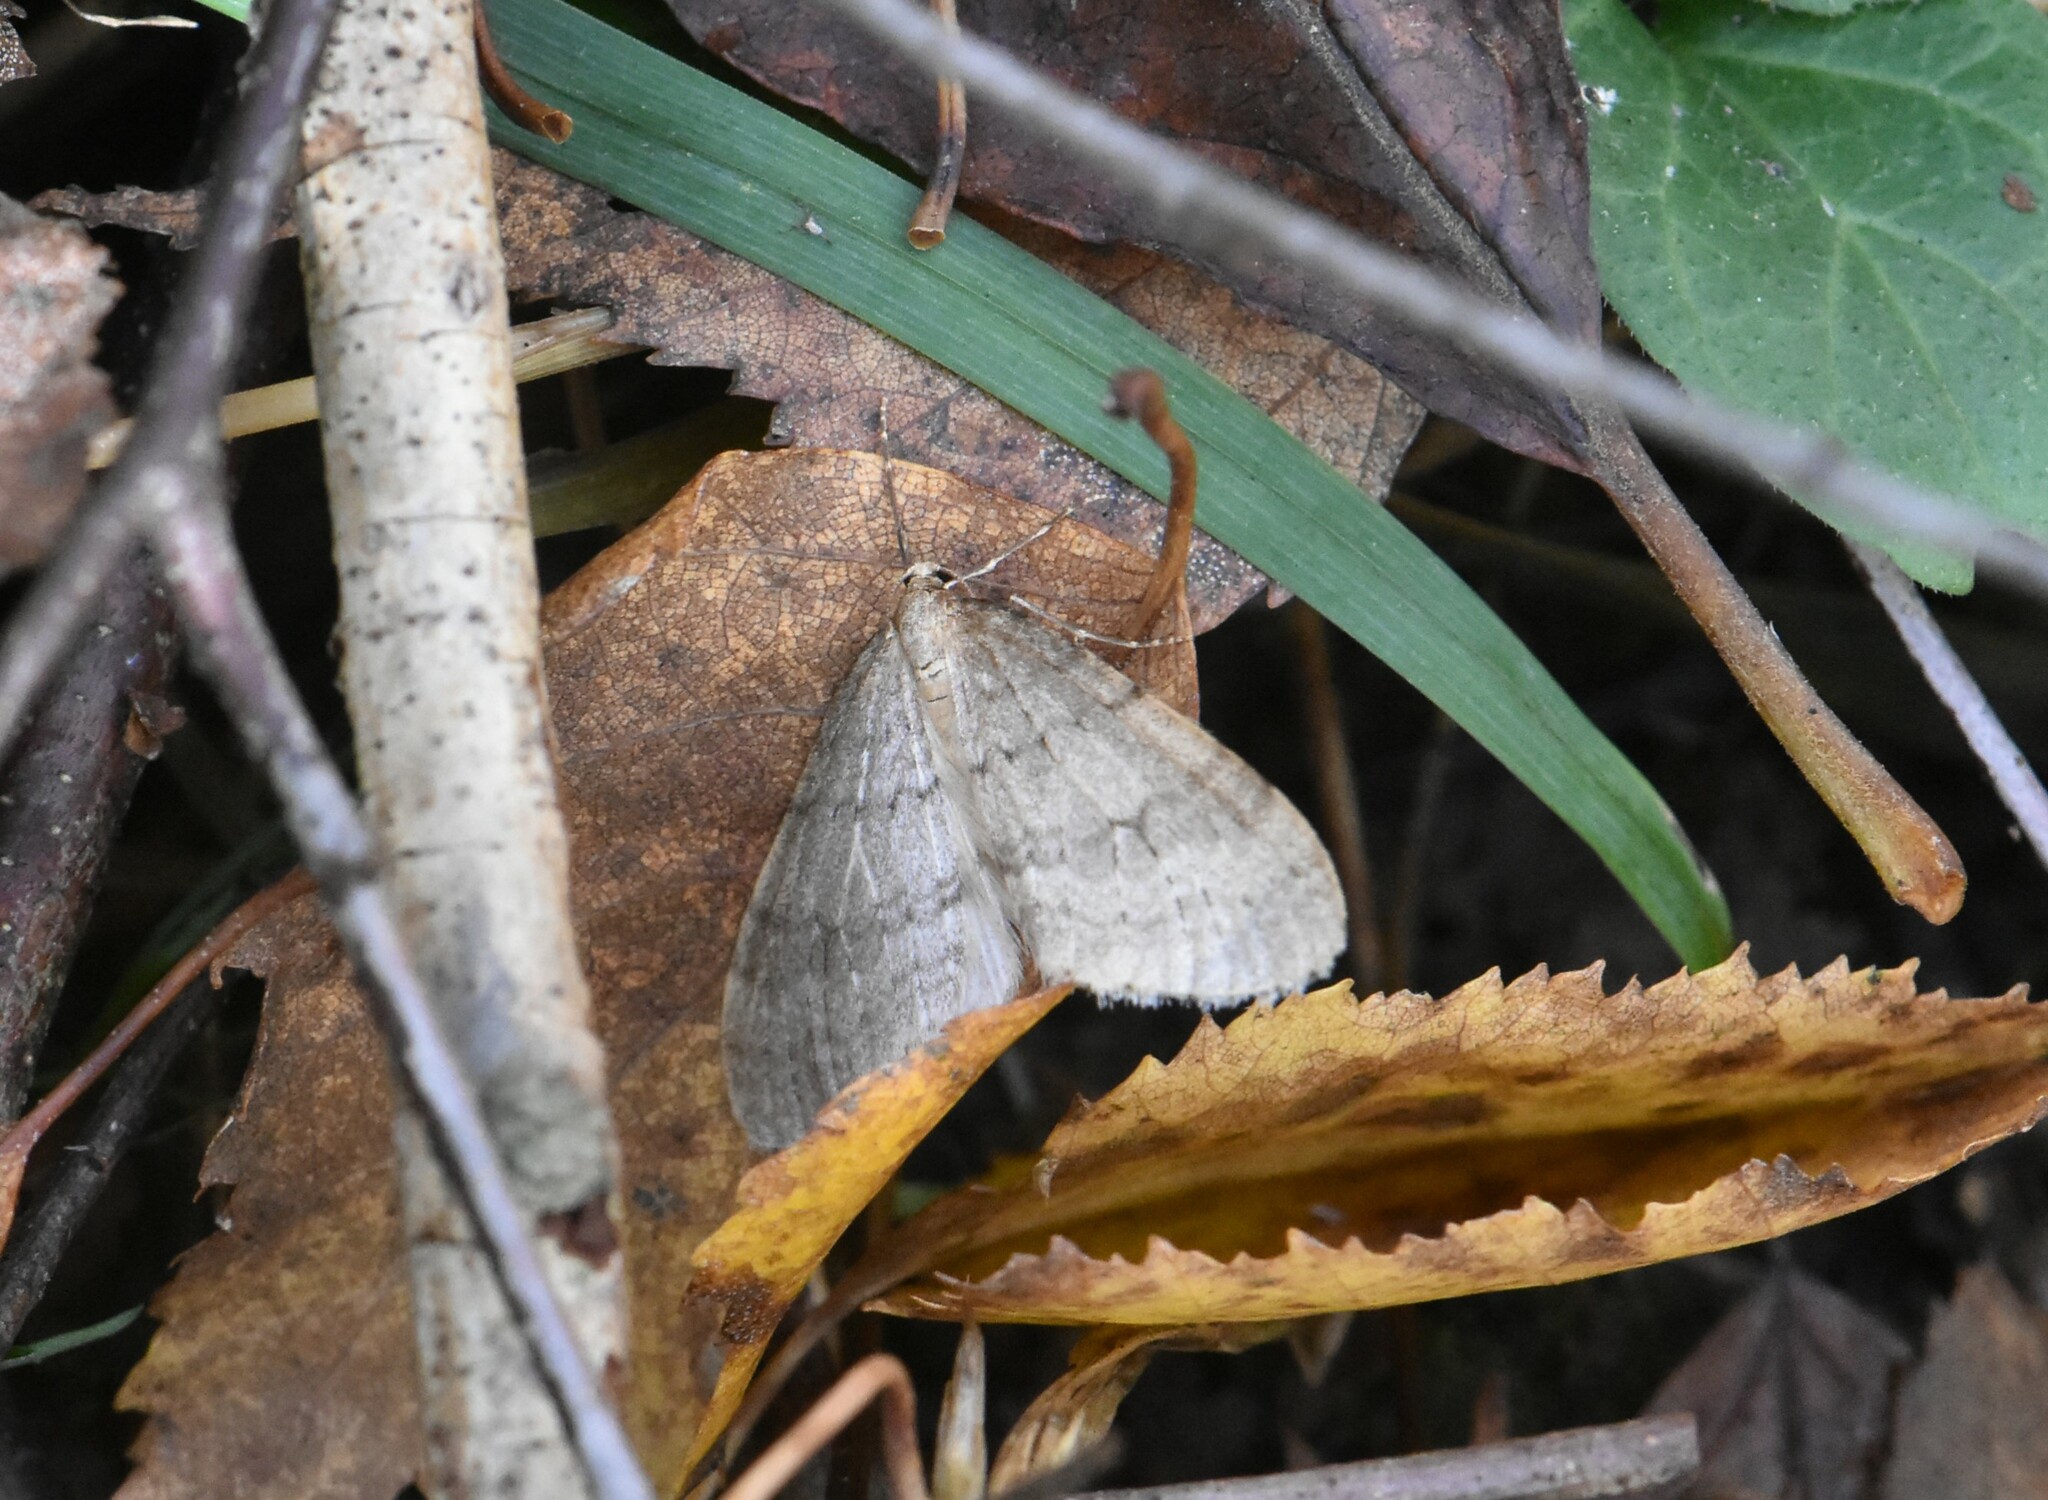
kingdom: Animalia
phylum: Arthropoda
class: Insecta
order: Lepidoptera
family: Geometridae
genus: Operophtera
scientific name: Operophtera fagata
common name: Northern winter moth
